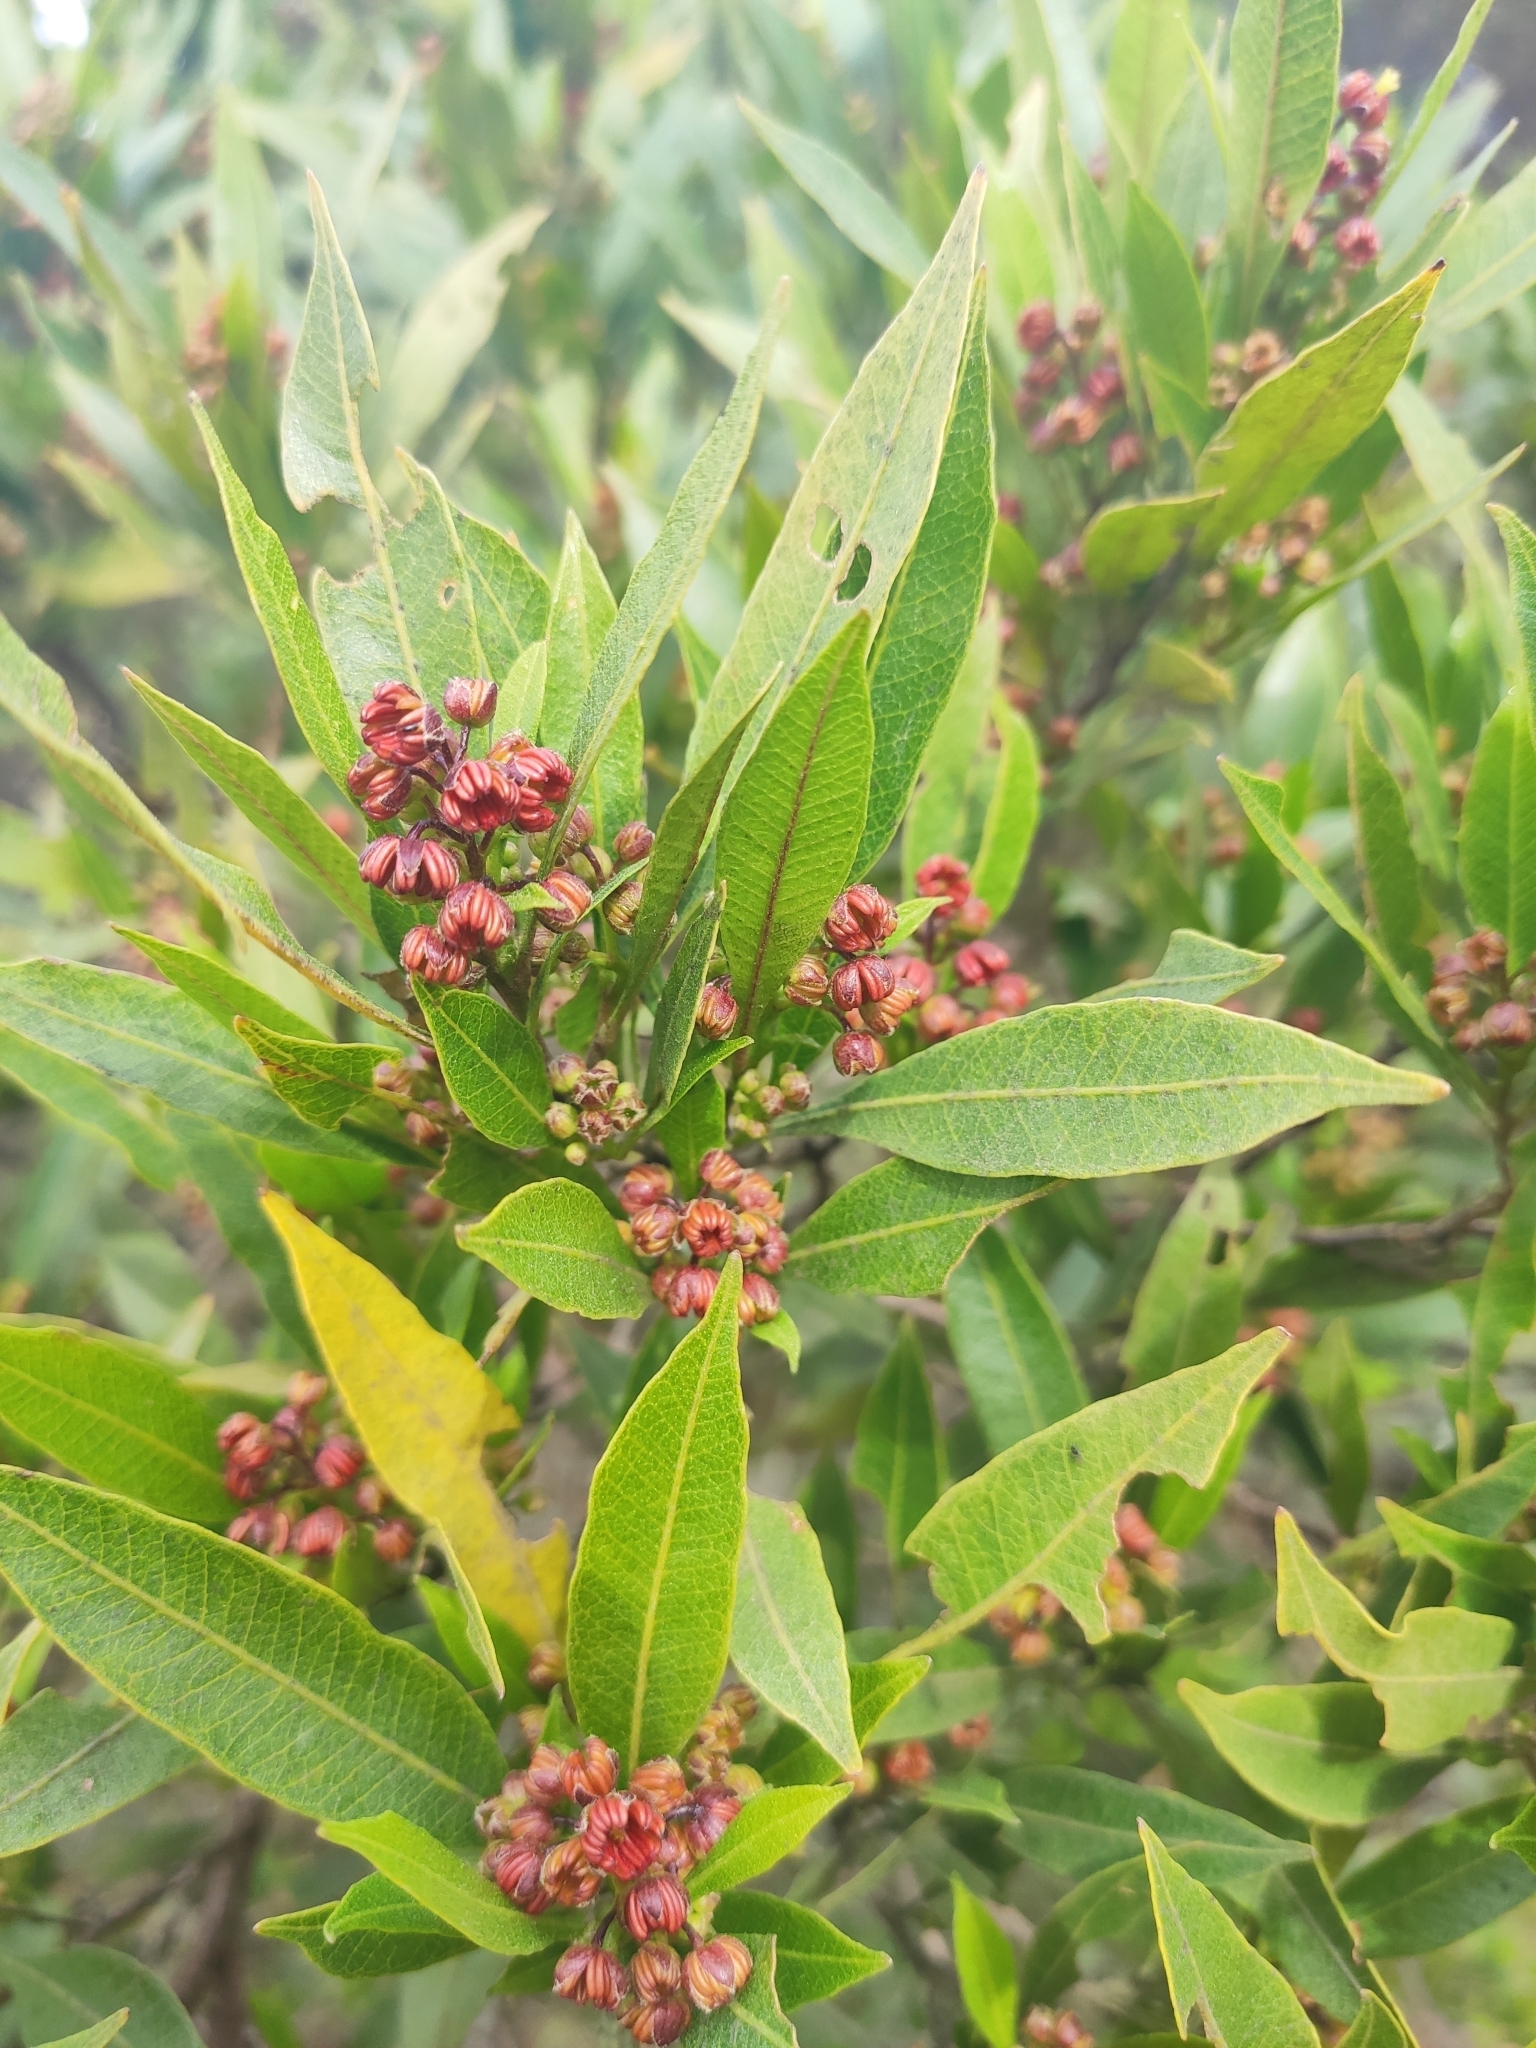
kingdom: Plantae
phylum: Tracheophyta
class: Magnoliopsida
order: Sapindales
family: Sapindaceae
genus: Dodonaea
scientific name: Dodonaea viscosa
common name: Hopbush
